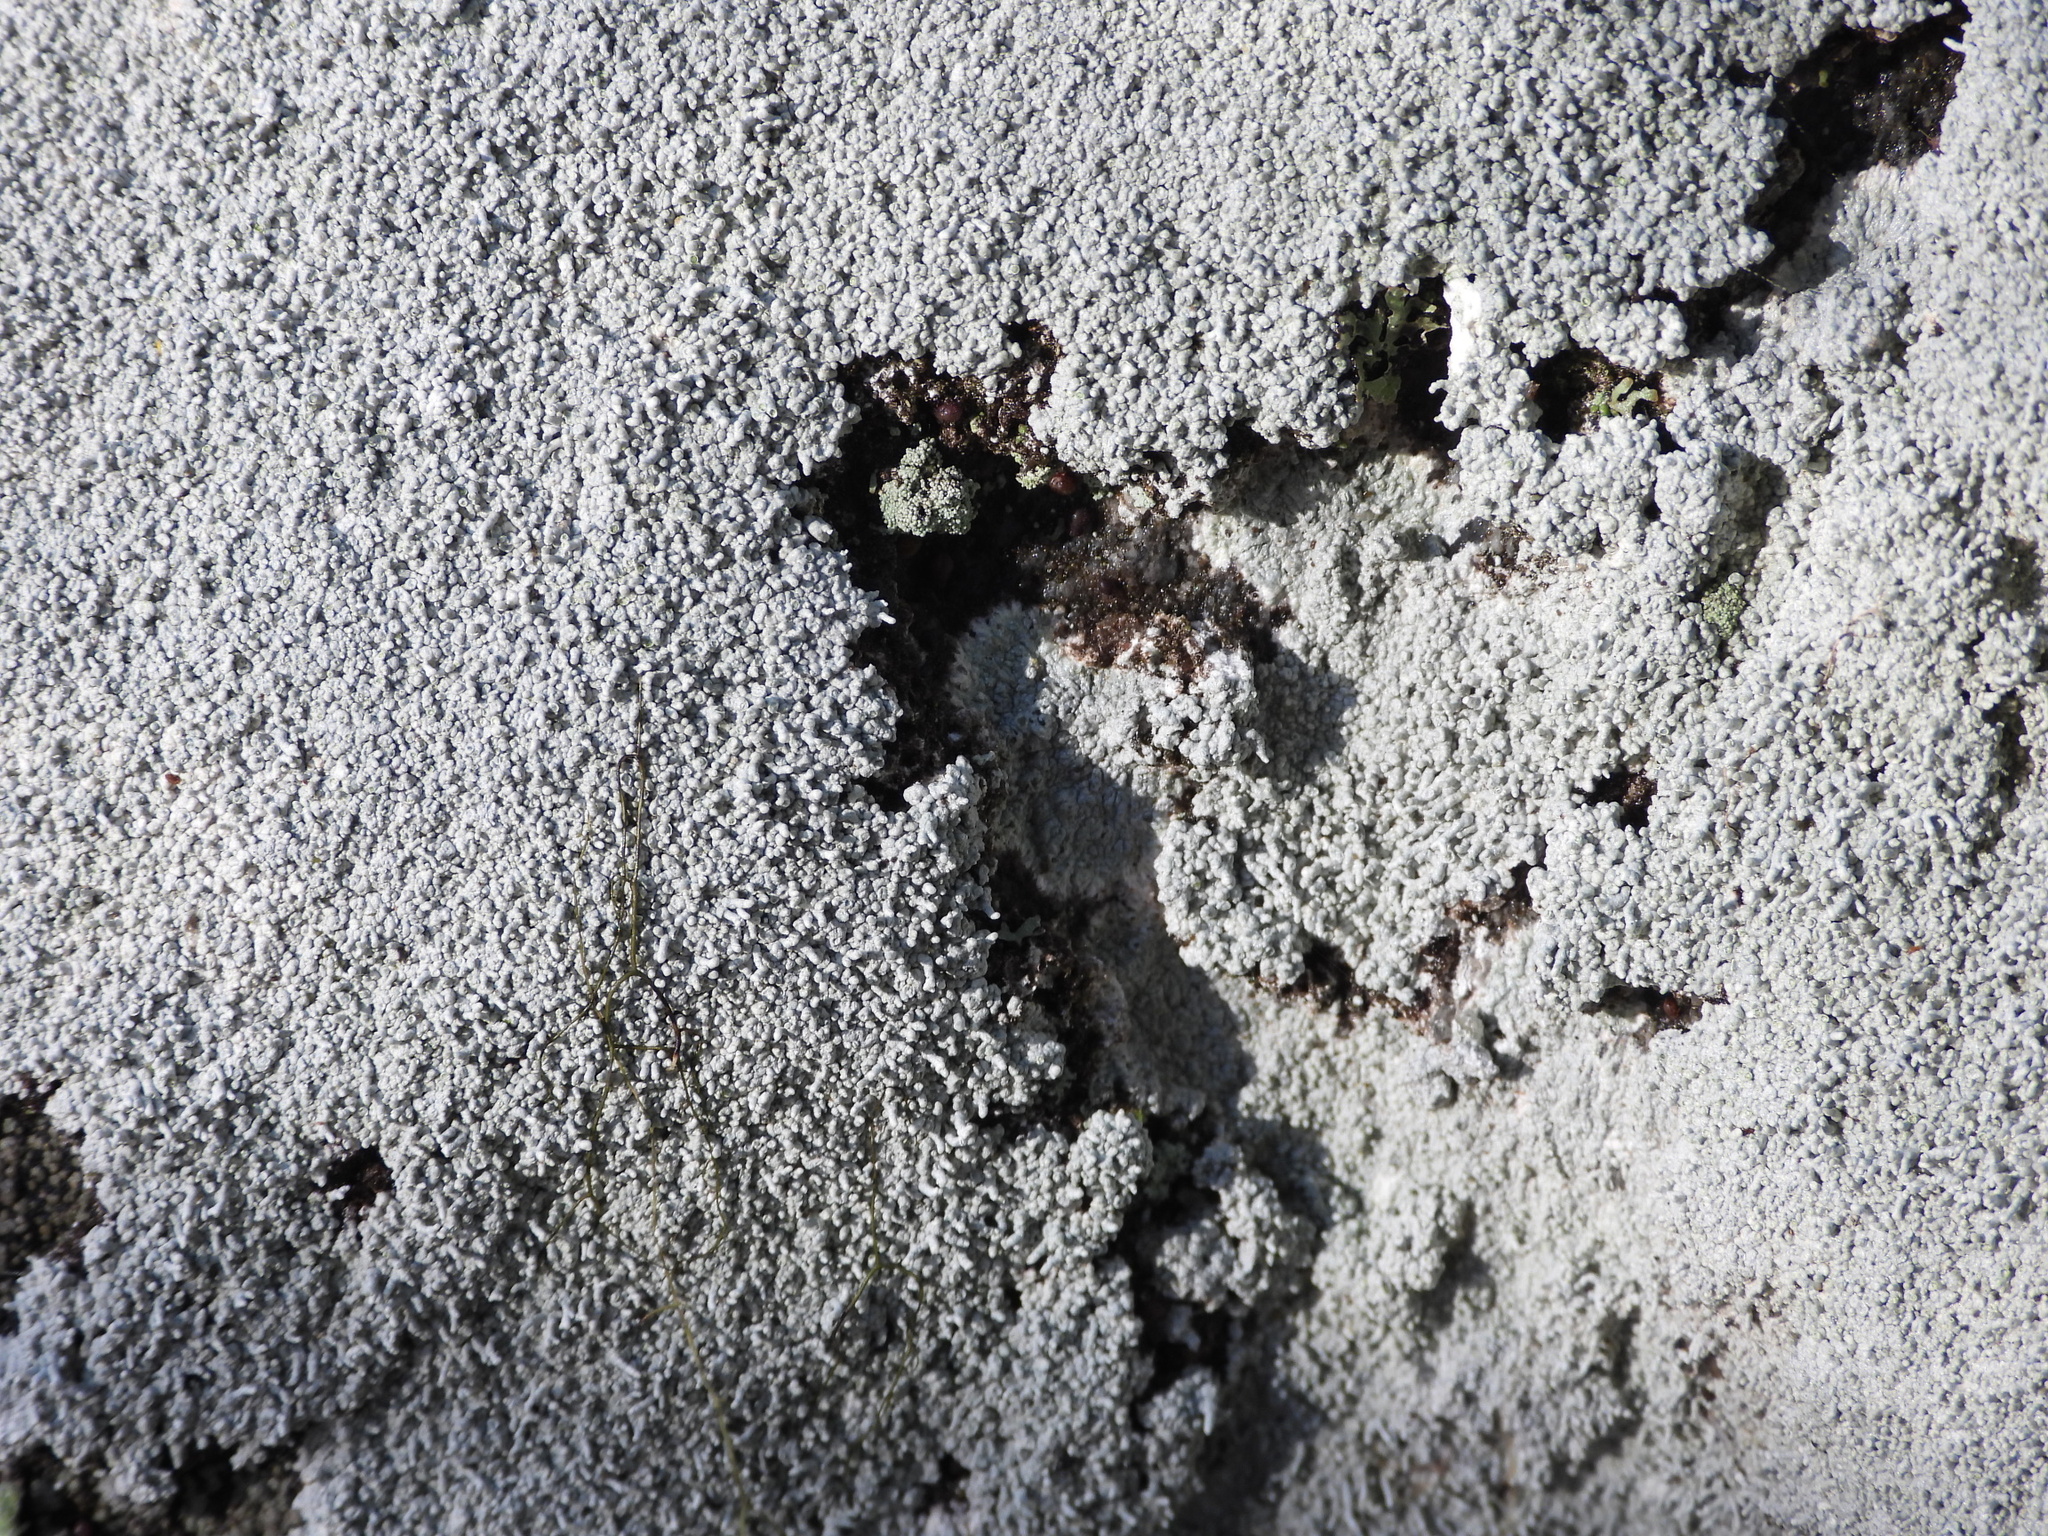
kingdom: Fungi
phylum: Ascomycota
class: Lecanoromycetes
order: Pertusariales
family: Pertusariaceae
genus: Lepra
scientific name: Lepra corallina
